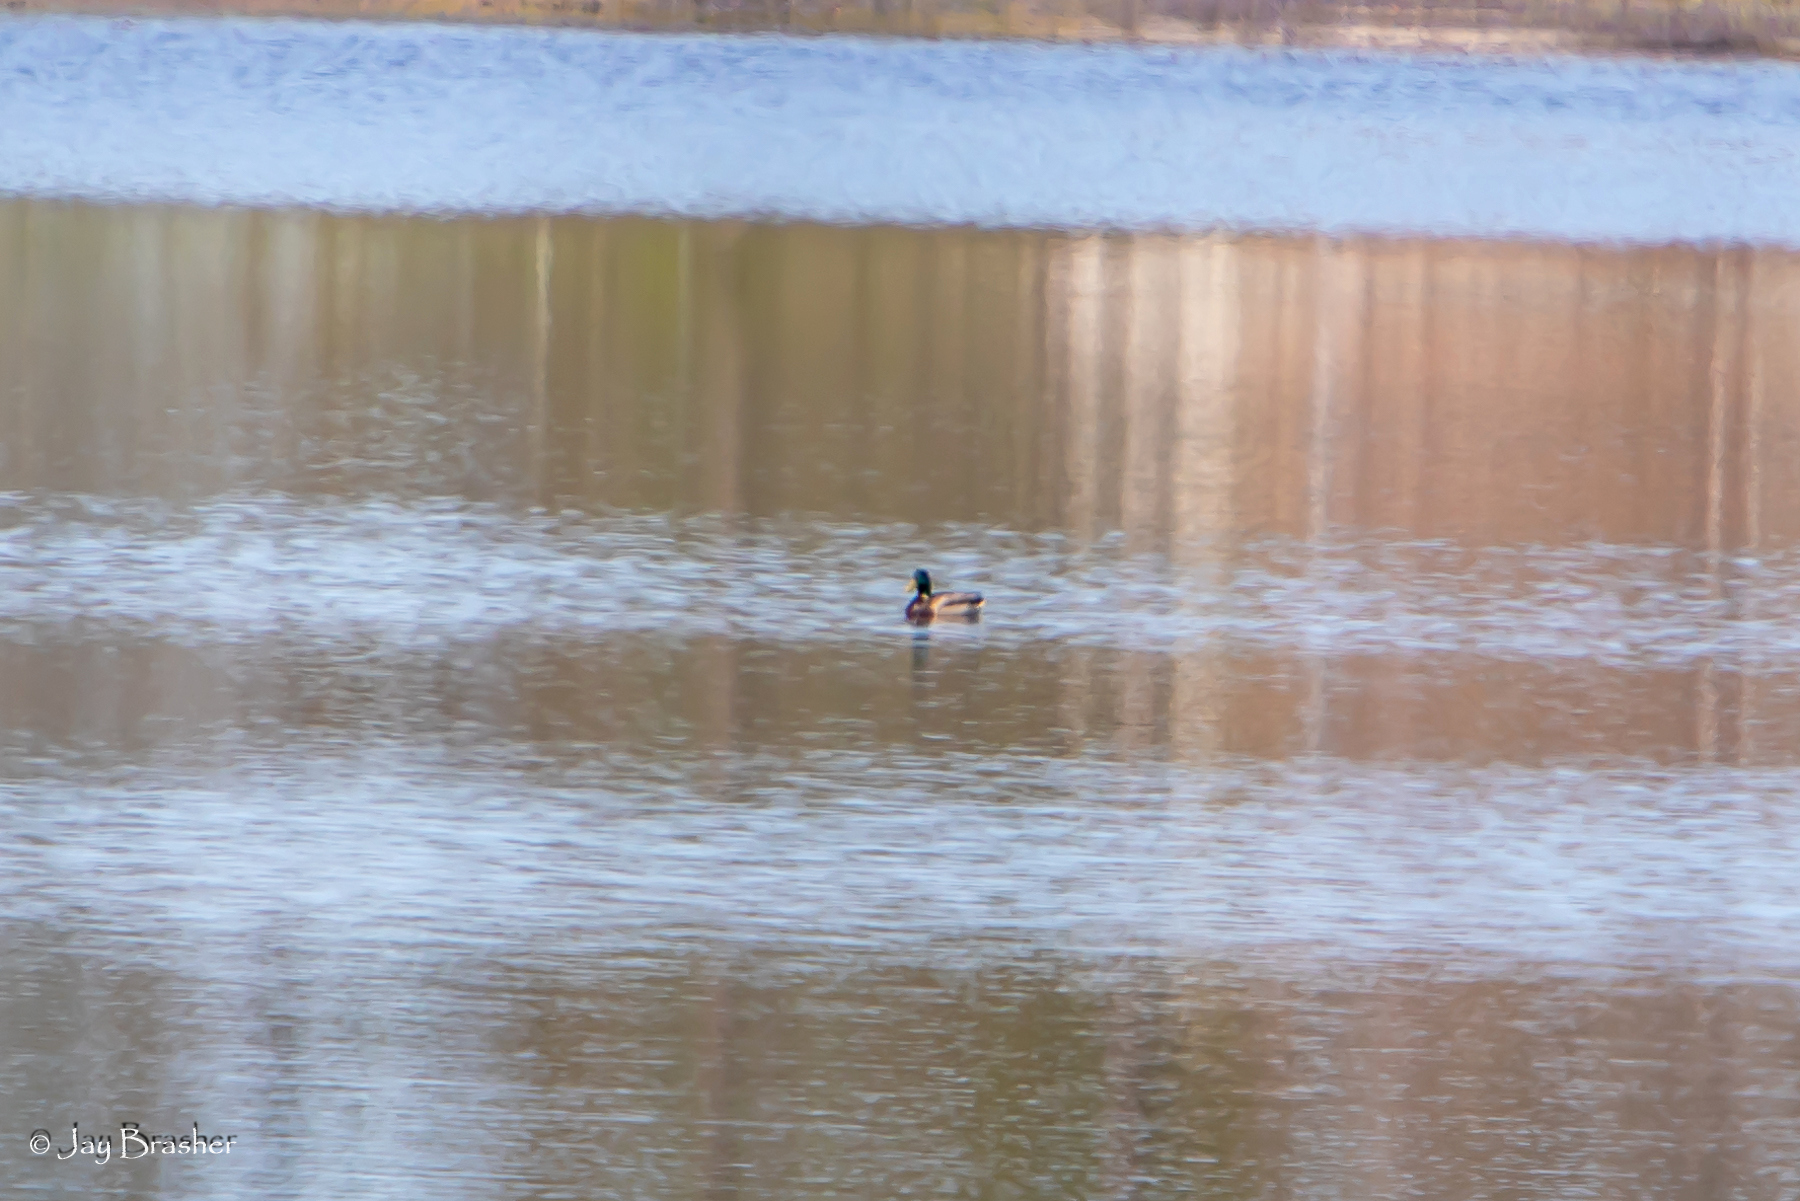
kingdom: Animalia
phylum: Chordata
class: Aves
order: Anseriformes
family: Anatidae
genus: Anas
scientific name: Anas platyrhynchos
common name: Mallard
